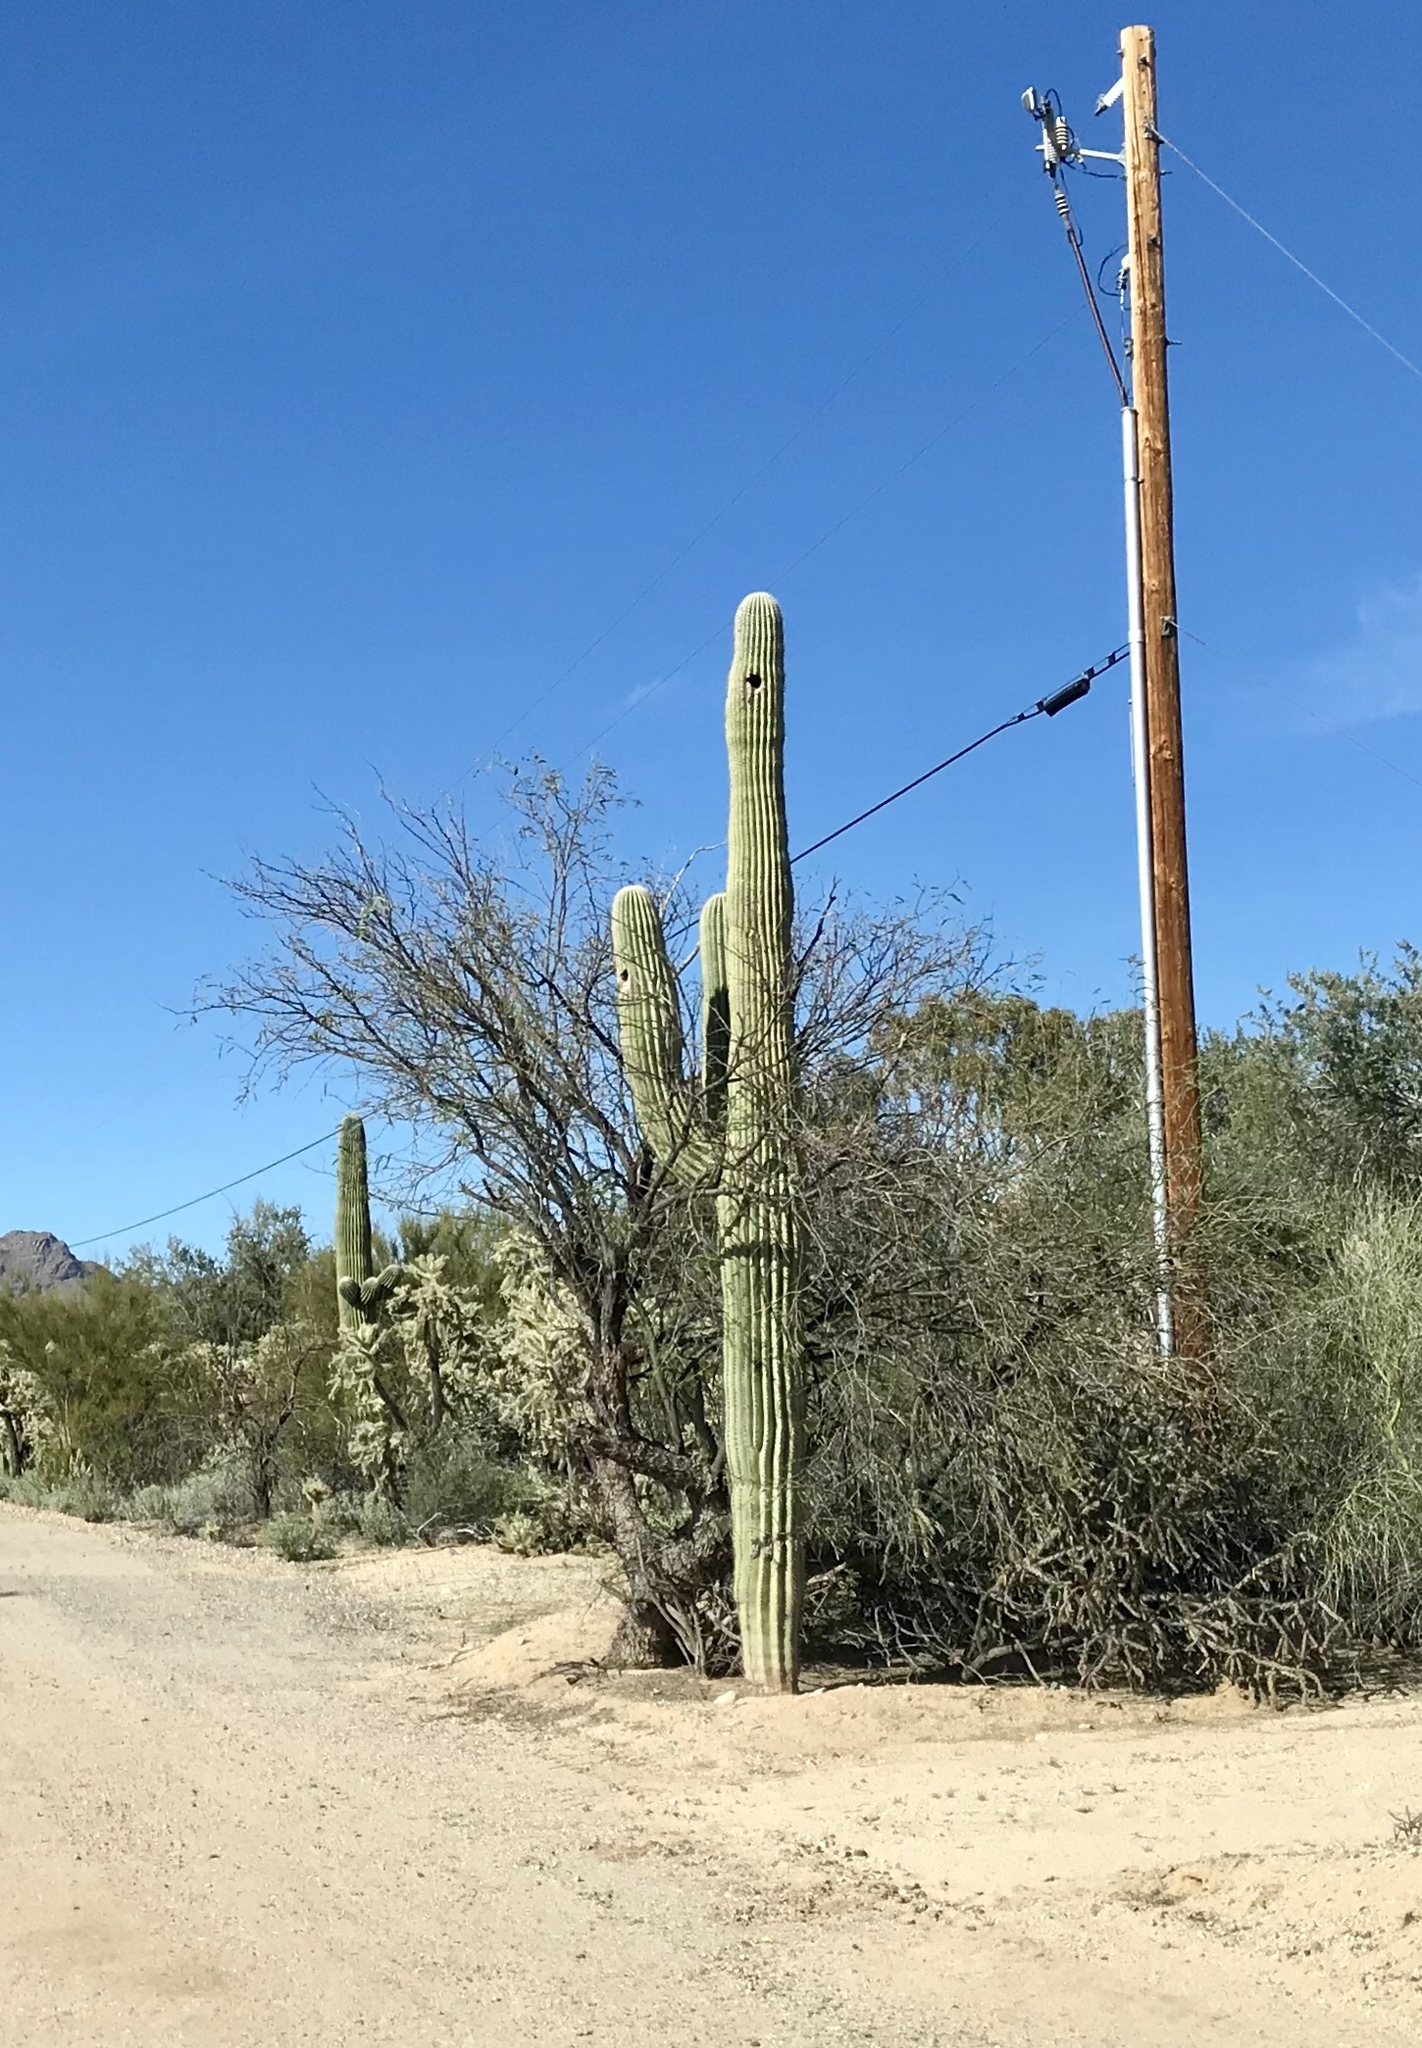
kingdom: Plantae
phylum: Tracheophyta
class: Magnoliopsida
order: Caryophyllales
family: Cactaceae
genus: Carnegiea
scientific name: Carnegiea gigantea
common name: Saguaro
